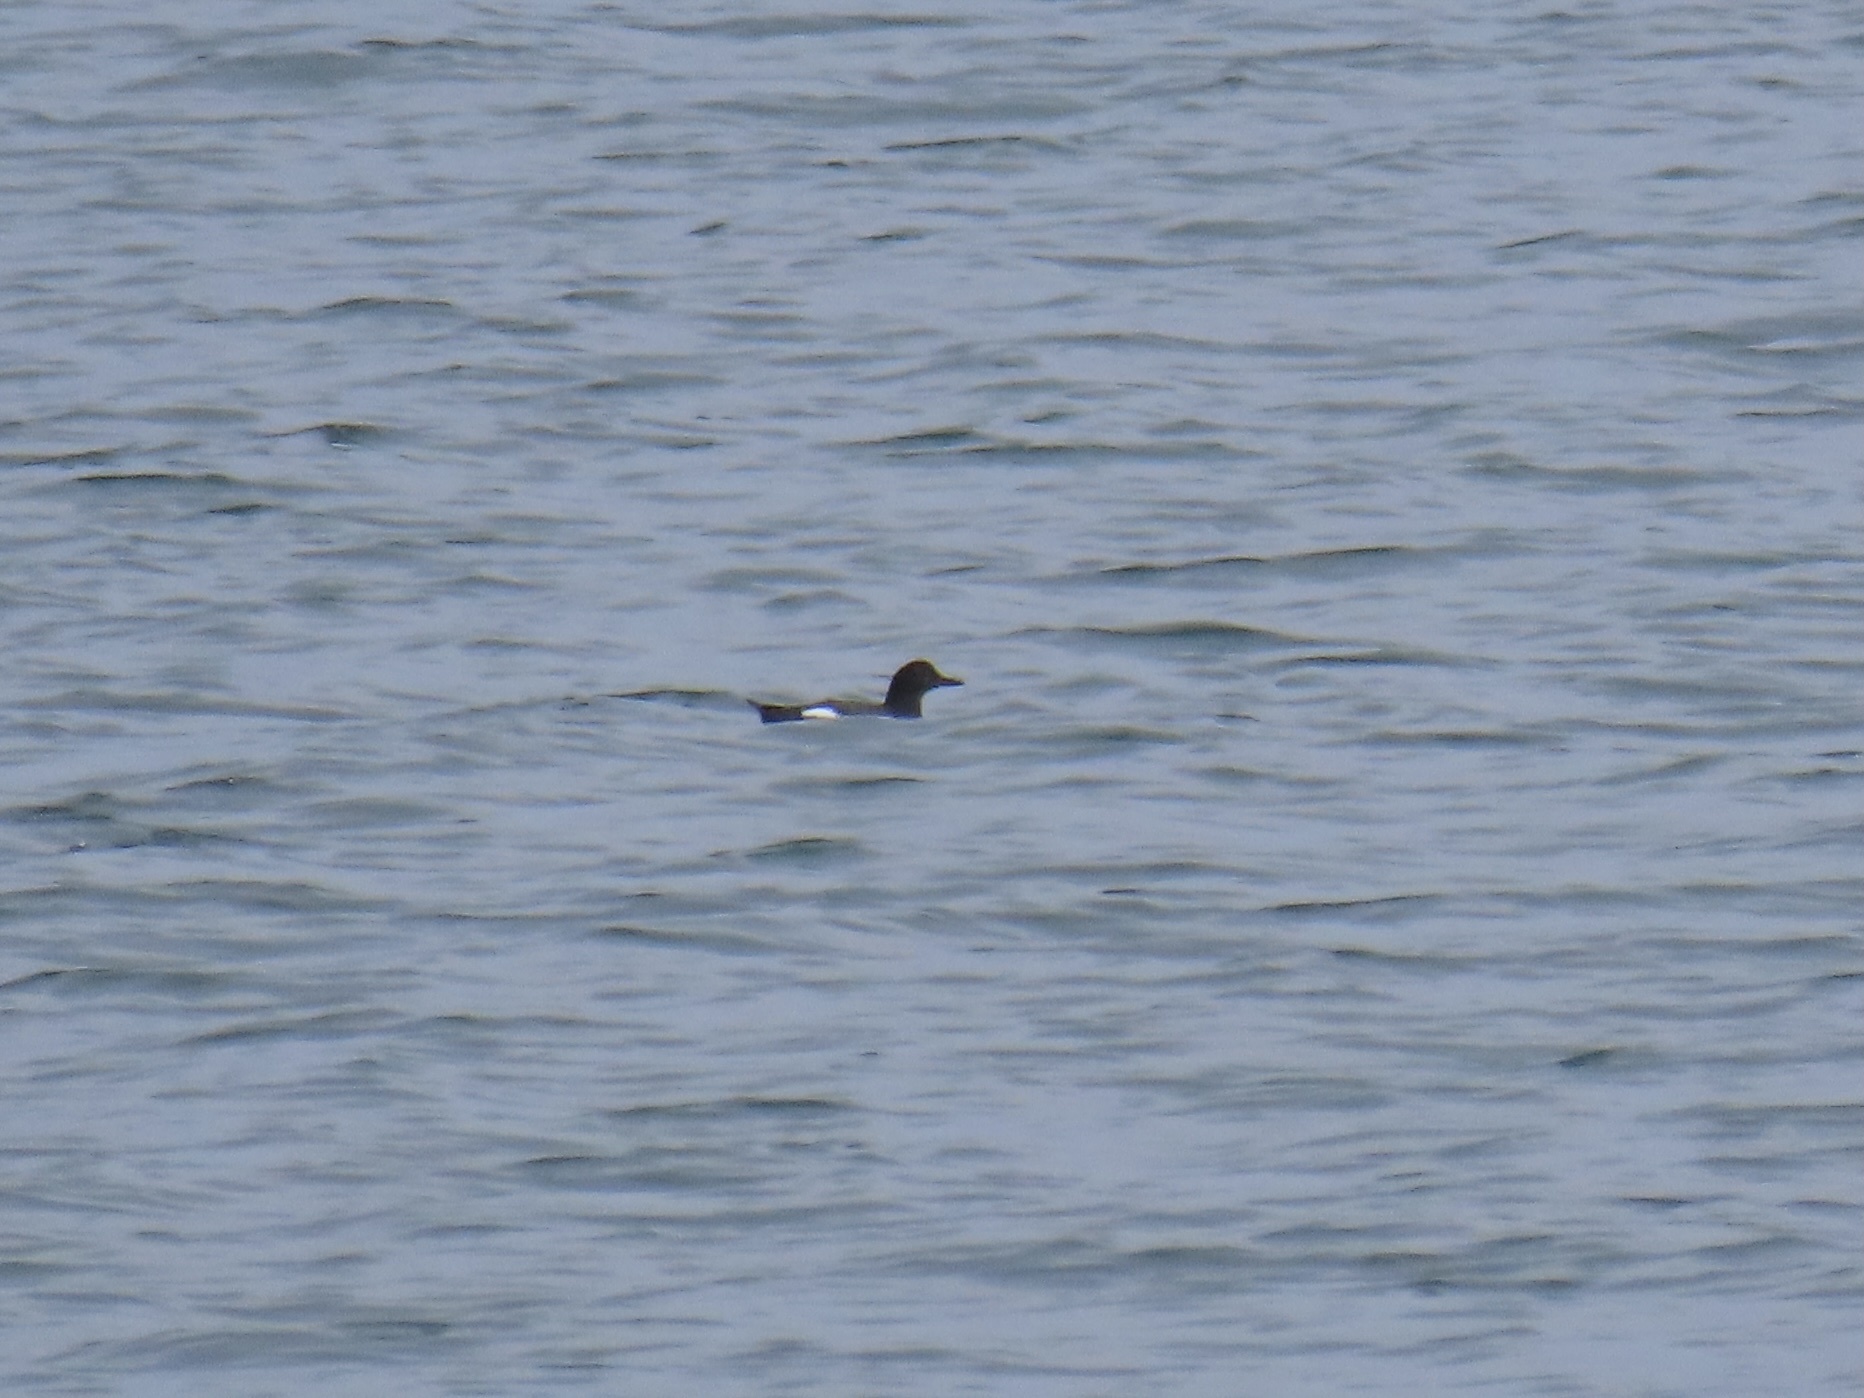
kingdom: Animalia
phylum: Chordata
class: Aves
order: Charadriiformes
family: Alcidae
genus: Cepphus
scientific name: Cepphus columba
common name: Pigeon guillemot
